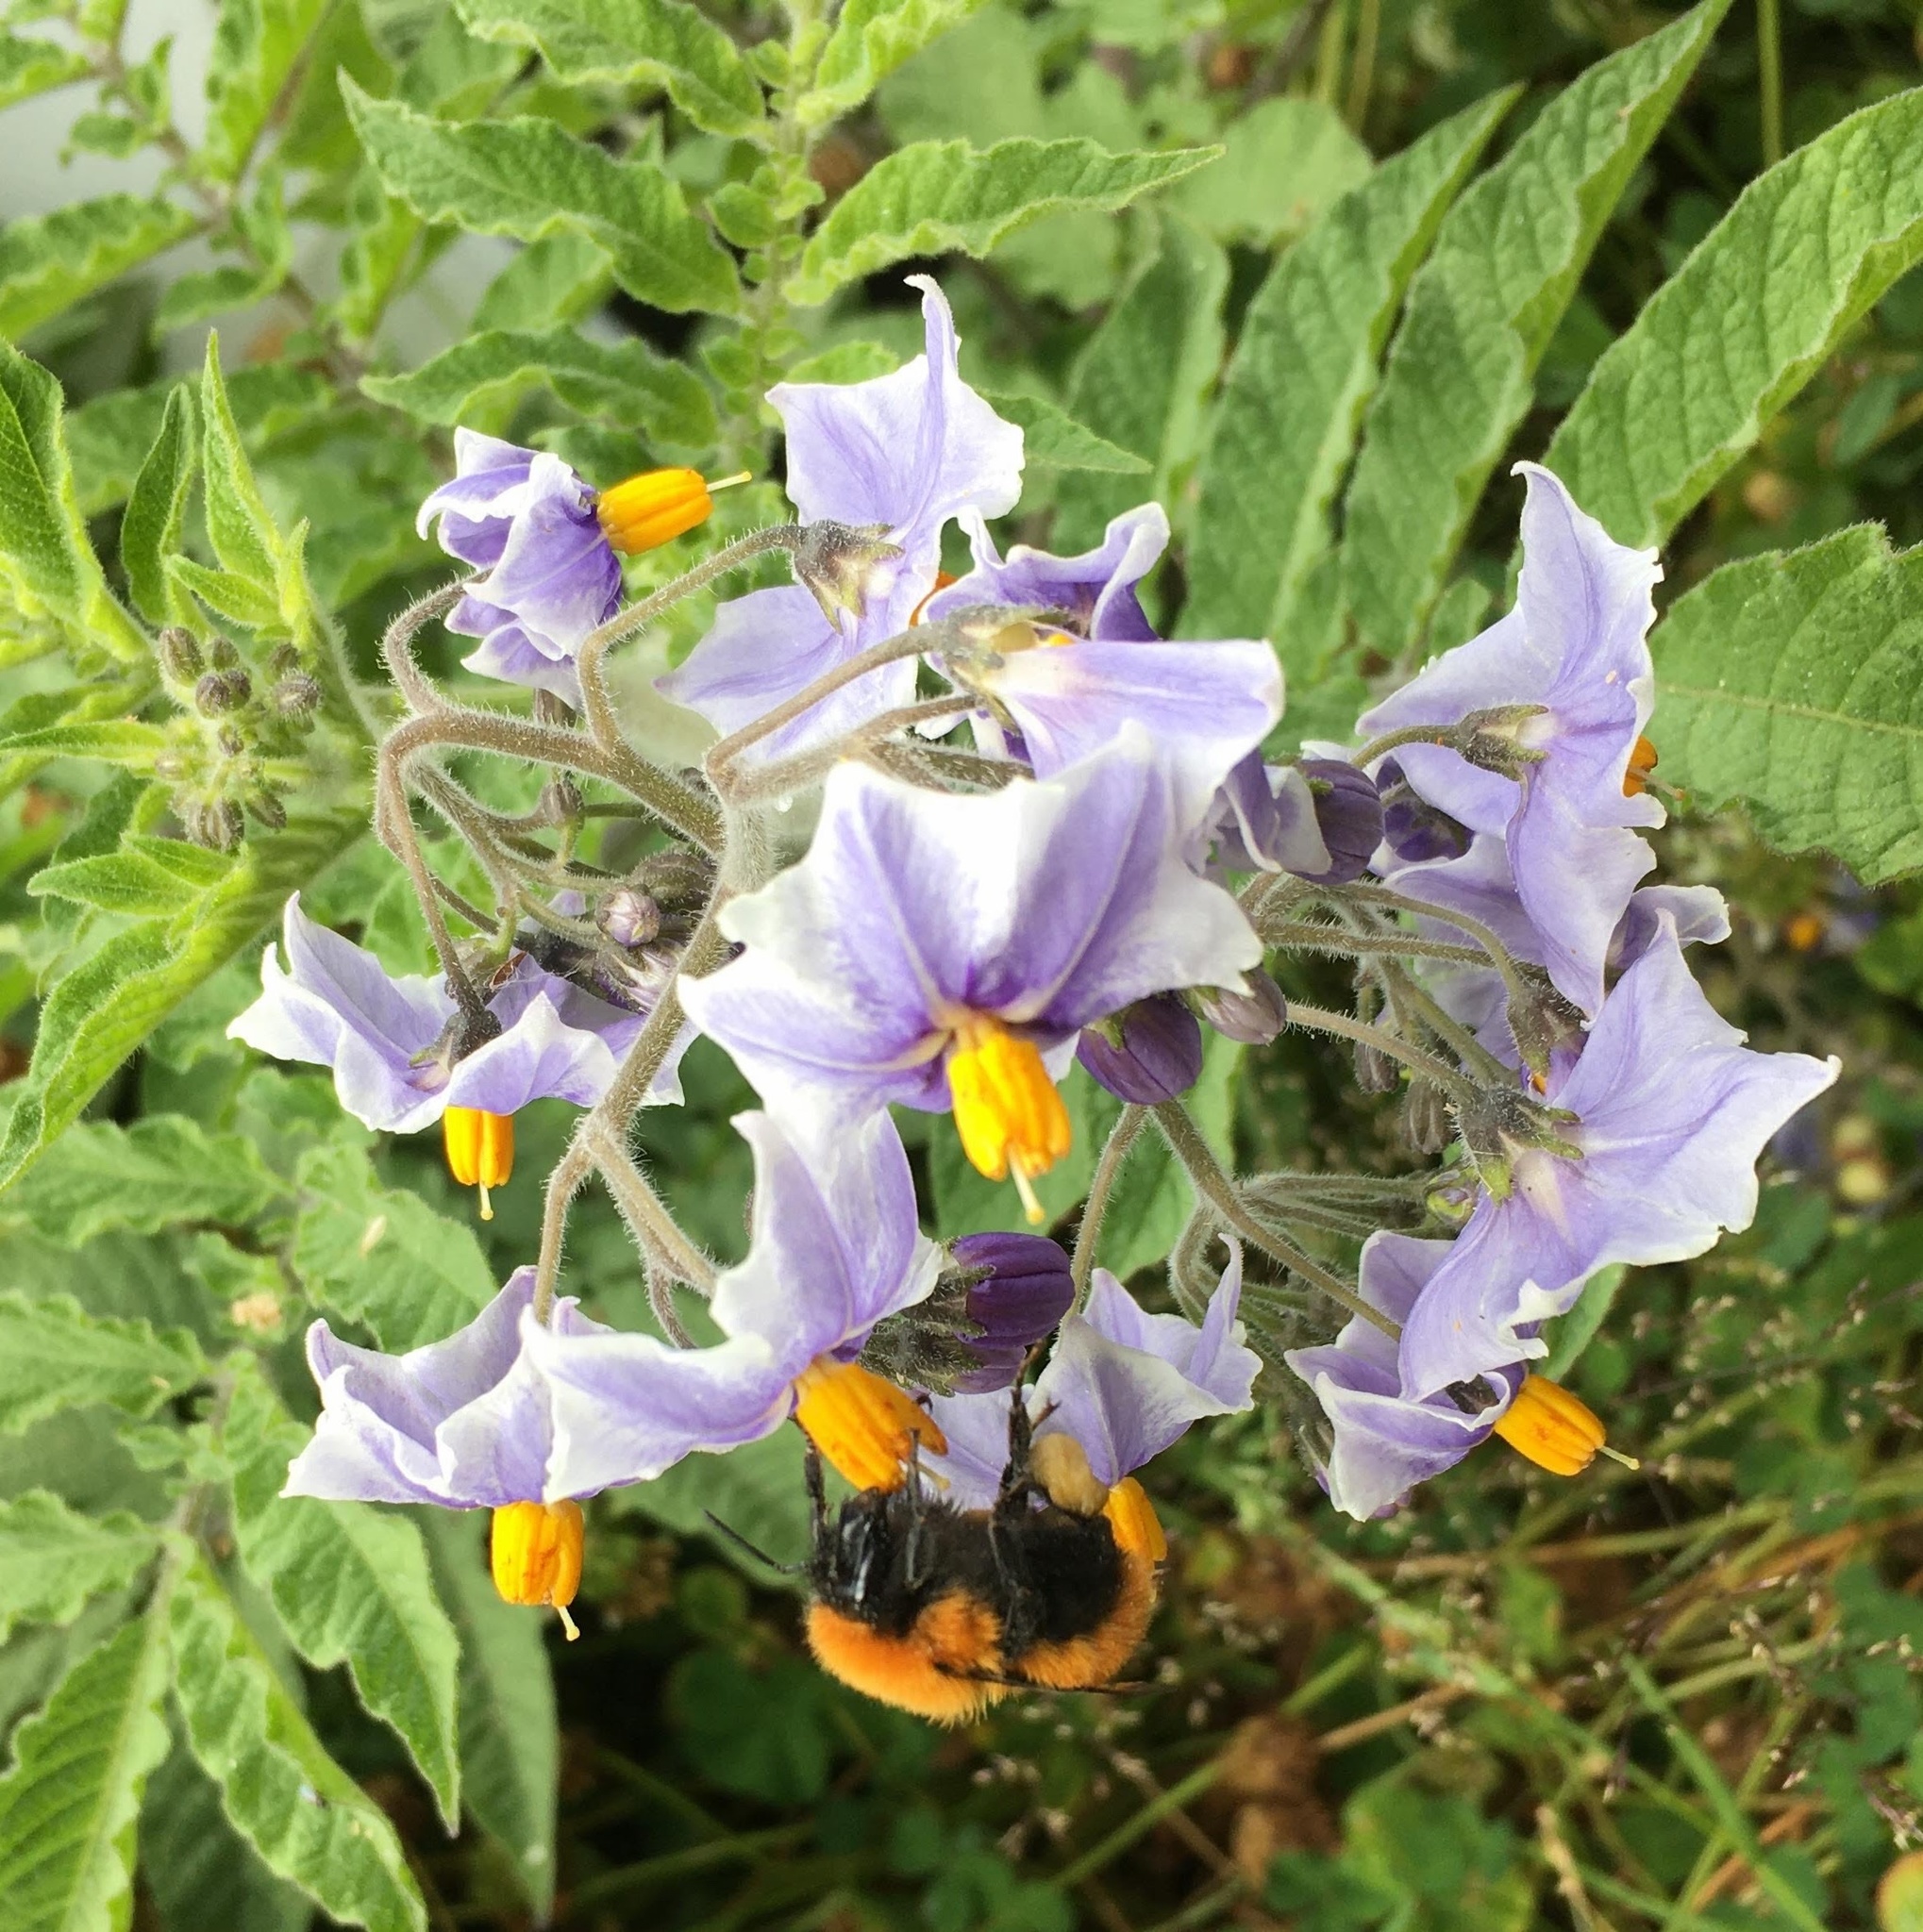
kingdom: Animalia
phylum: Arthropoda
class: Insecta
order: Hymenoptera
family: Apidae
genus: Bombus
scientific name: Bombus dahlbomii
